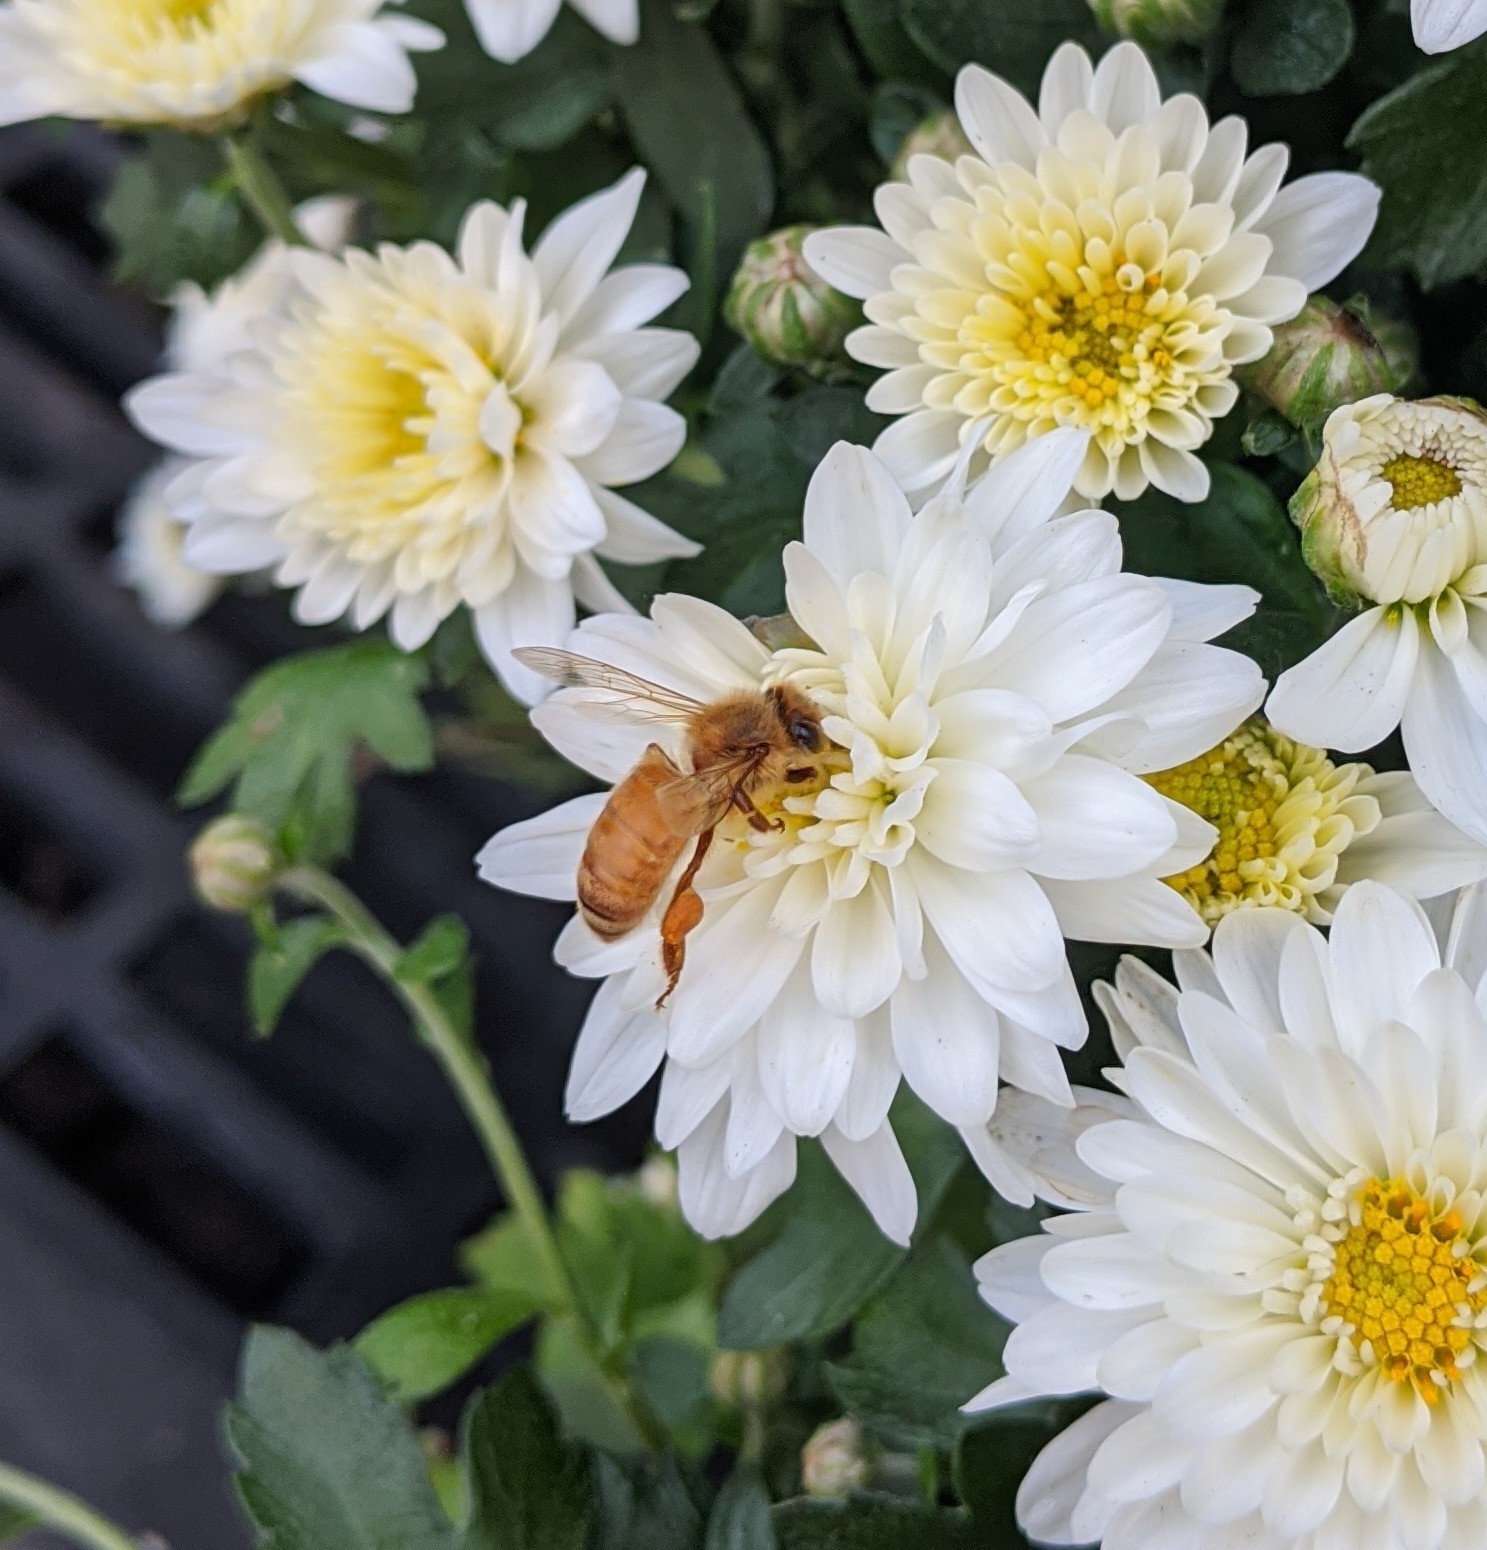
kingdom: Animalia
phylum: Arthropoda
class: Insecta
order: Hymenoptera
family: Apidae
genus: Apis
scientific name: Apis mellifera
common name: Honey bee
